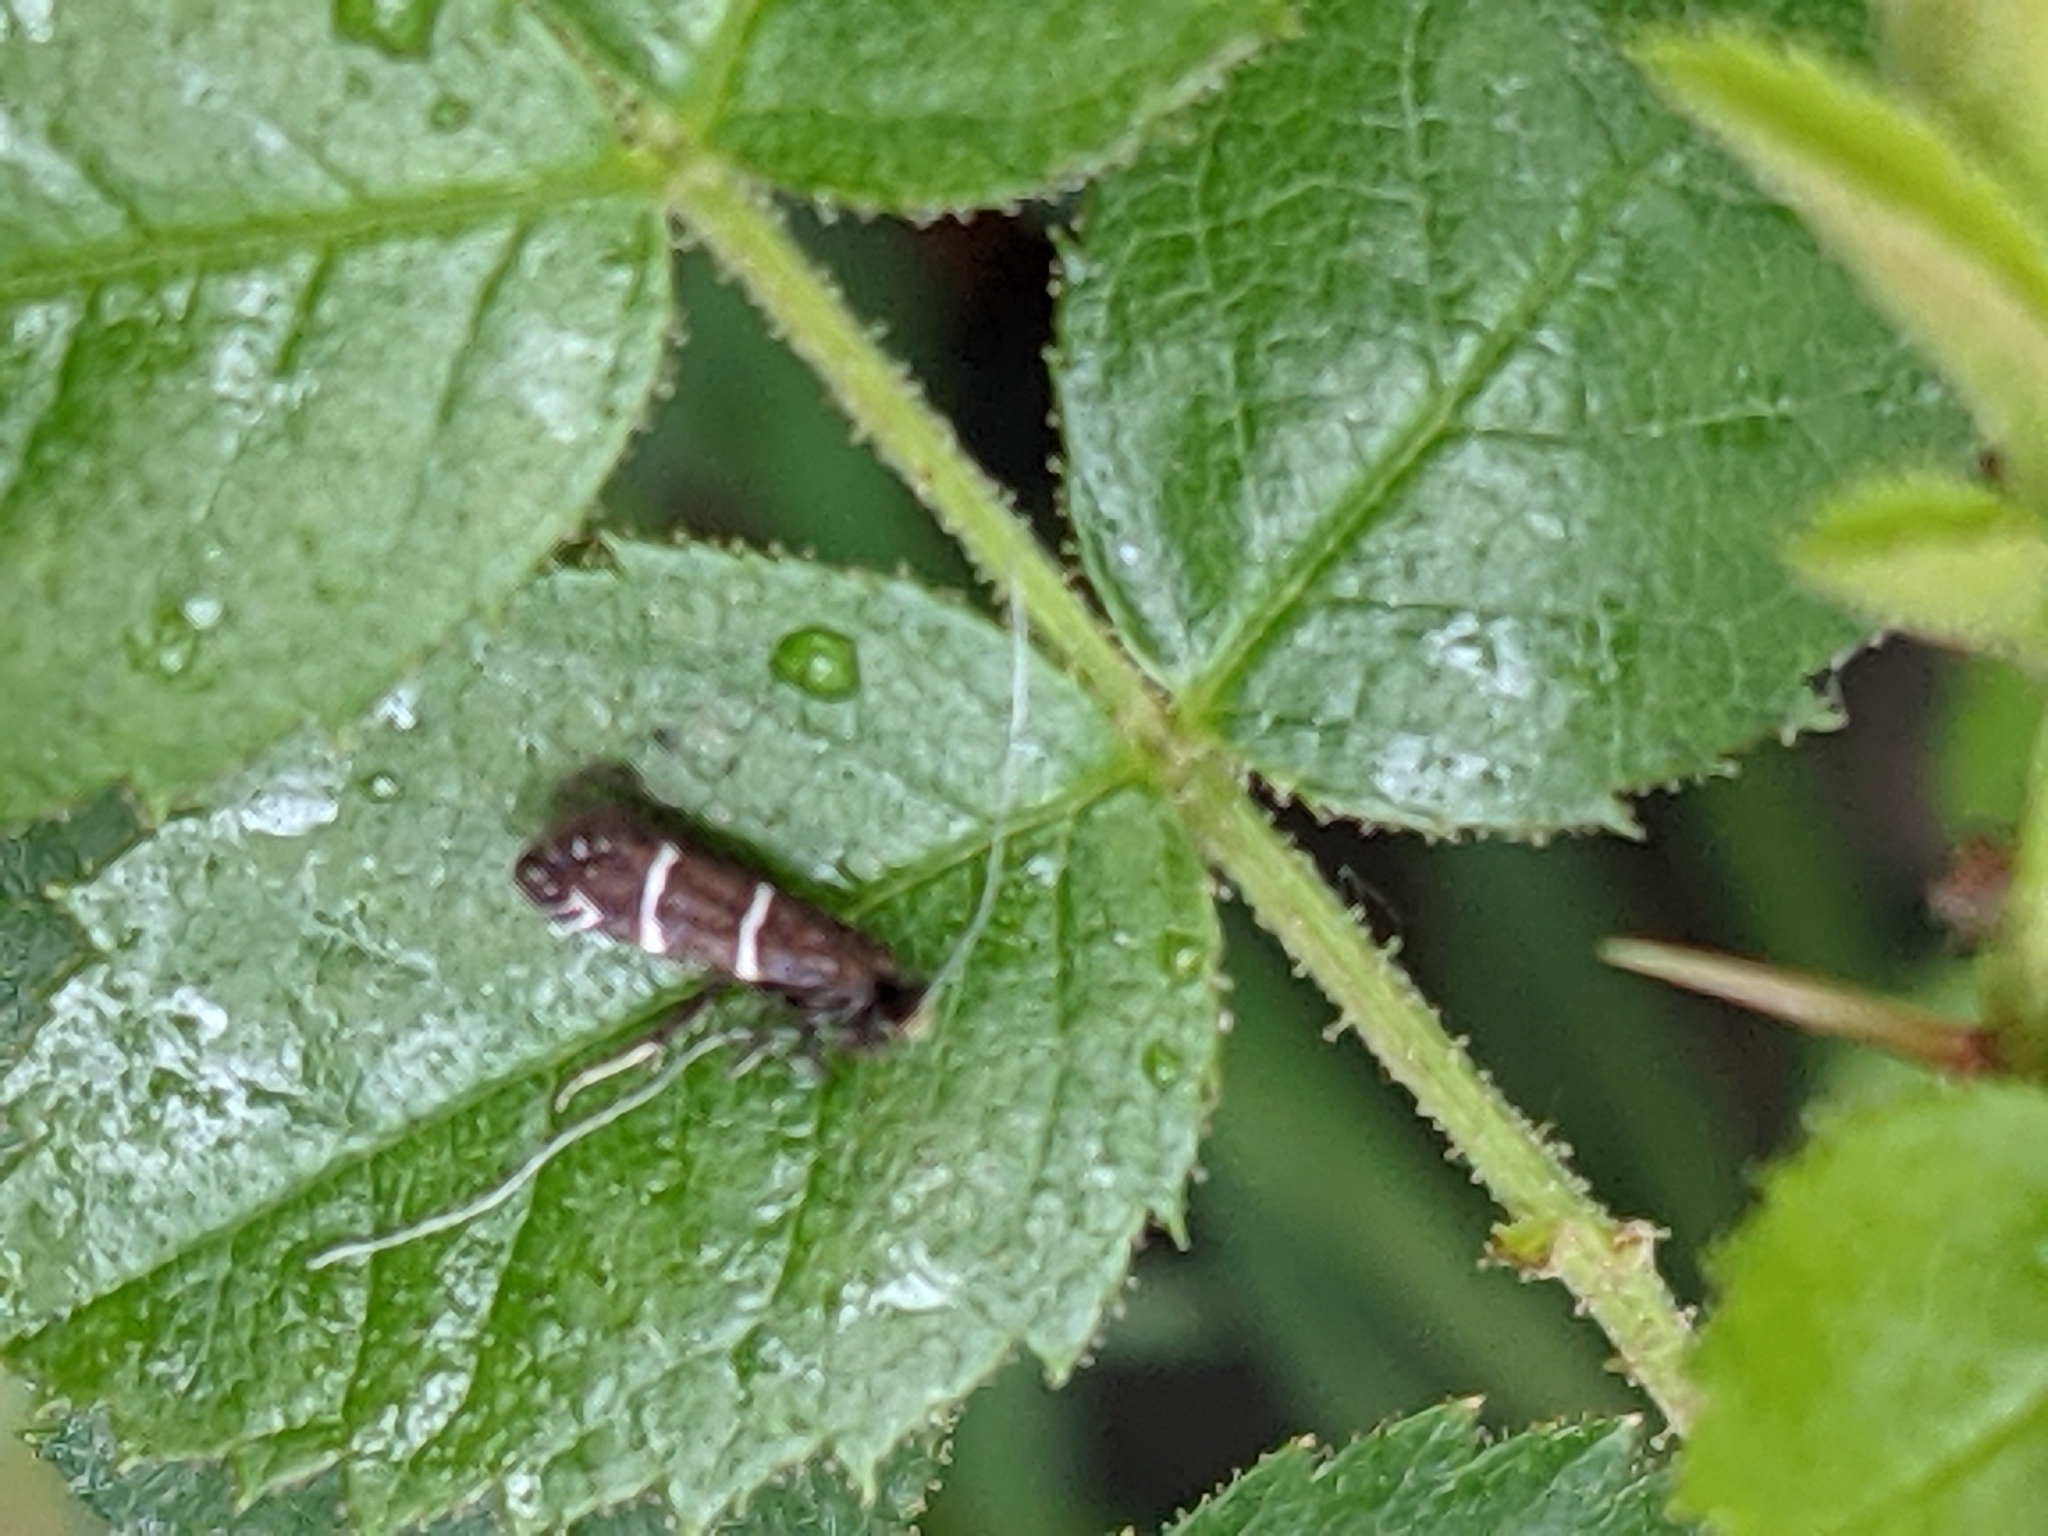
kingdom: Animalia
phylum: Arthropoda
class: Insecta
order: Lepidoptera
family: Adelidae
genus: Adela
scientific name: Adela septentrionella
